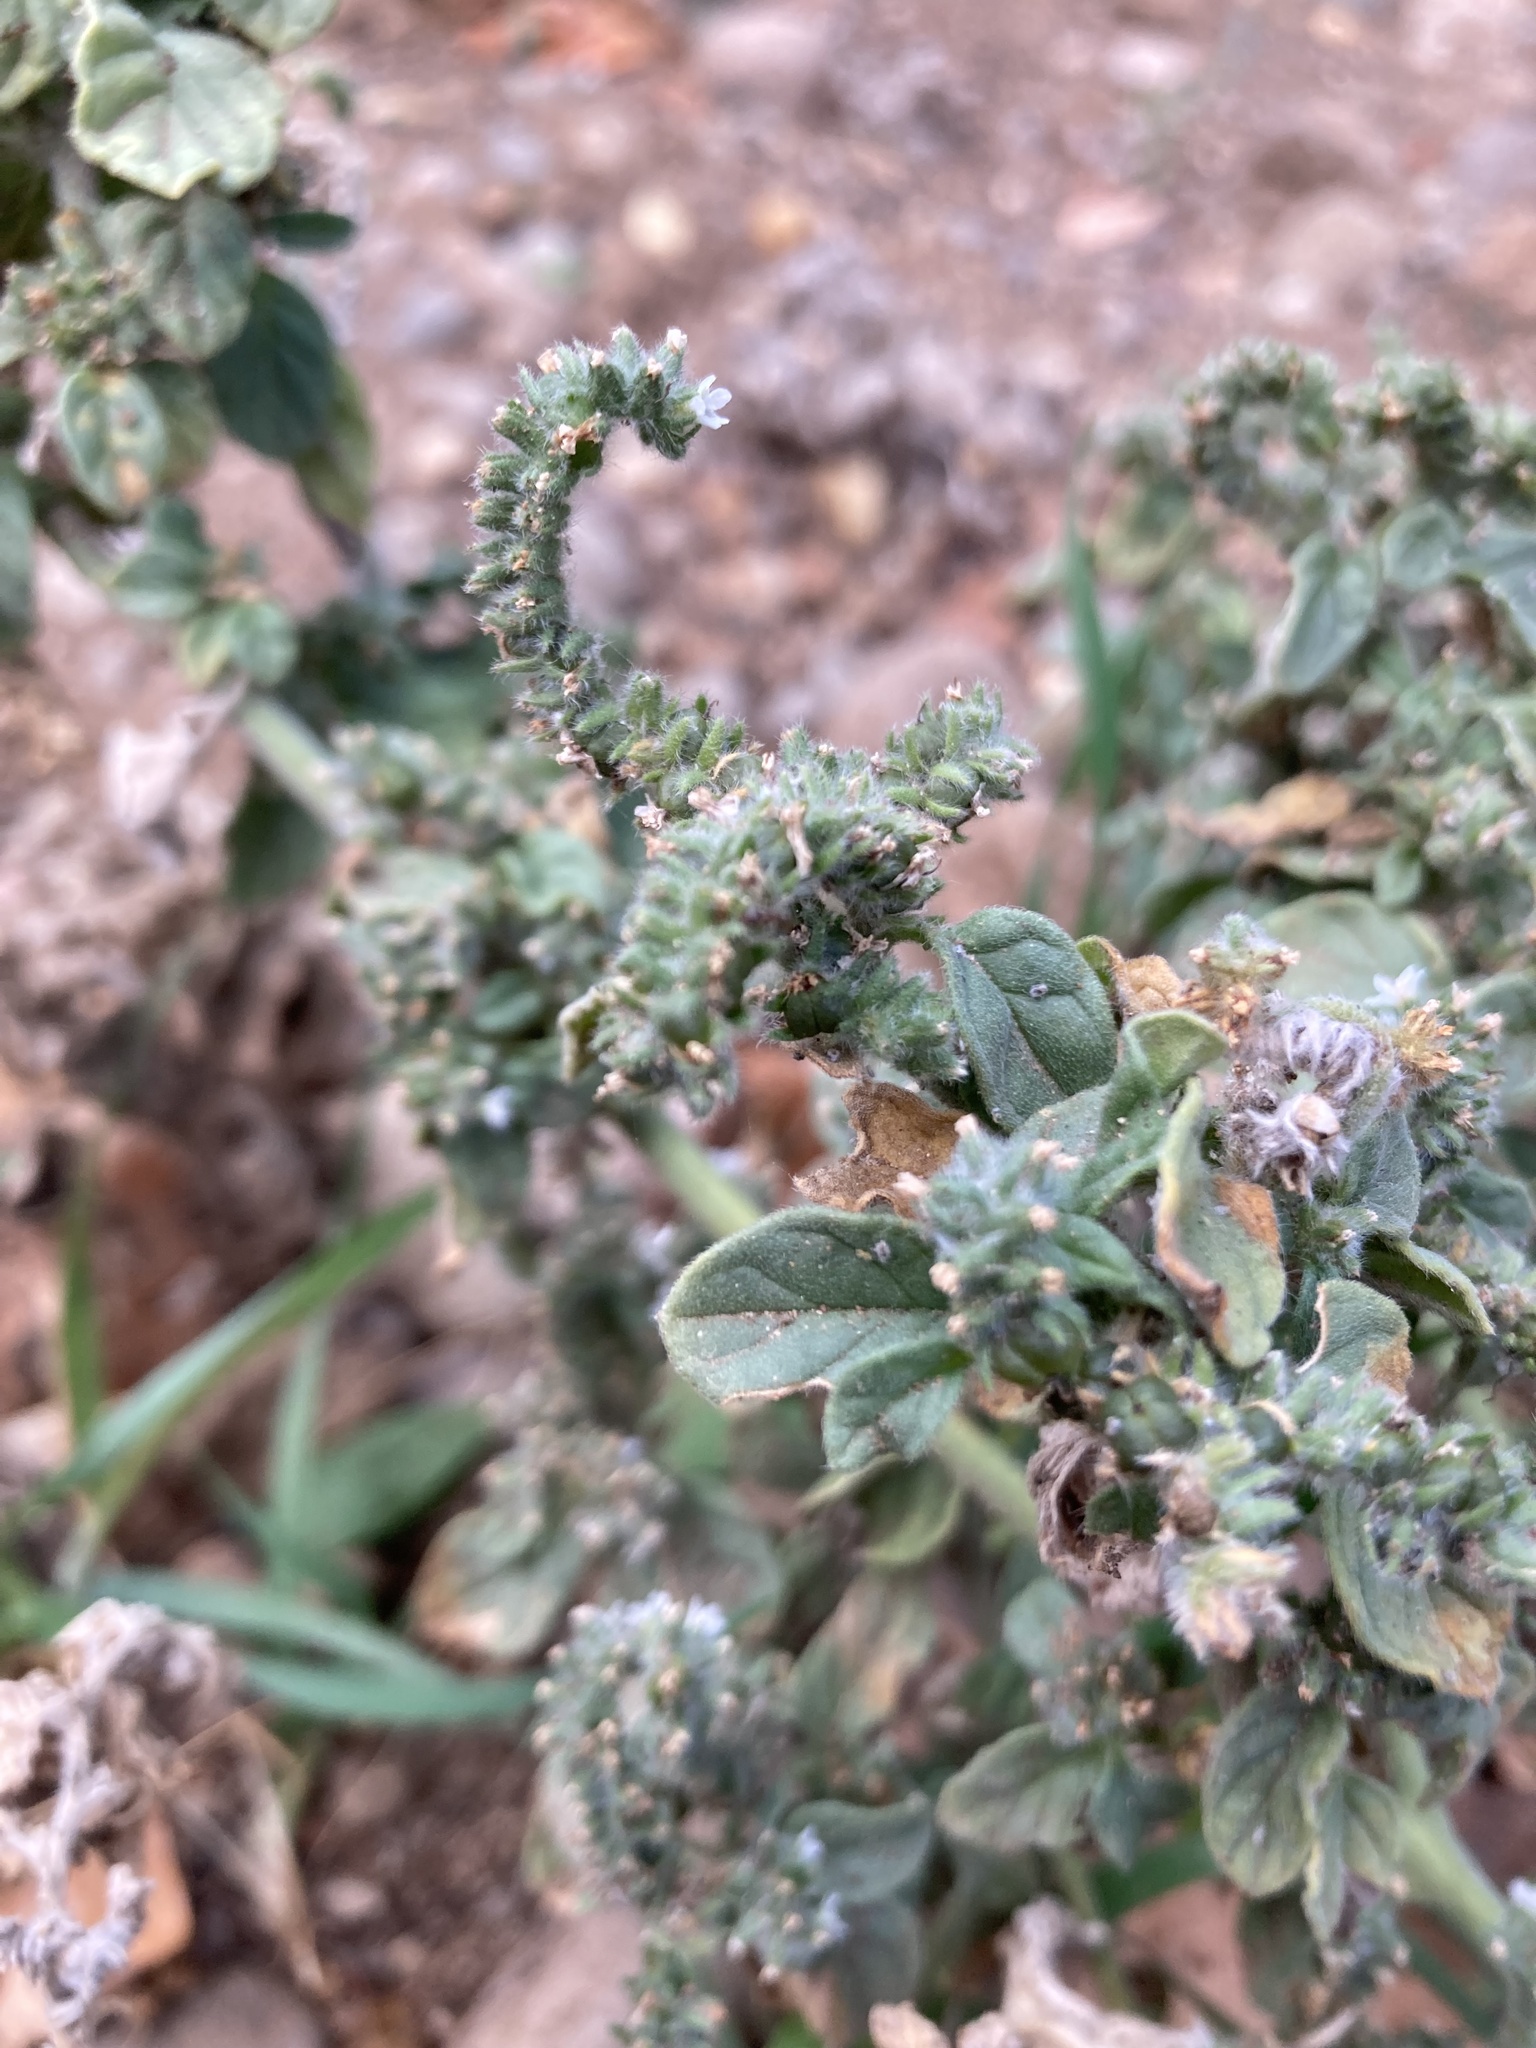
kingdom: Plantae
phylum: Tracheophyta
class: Magnoliopsida
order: Boraginales
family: Heliotropiaceae
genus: Heliotropium
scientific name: Heliotropium europaeum
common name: European heliotrope
